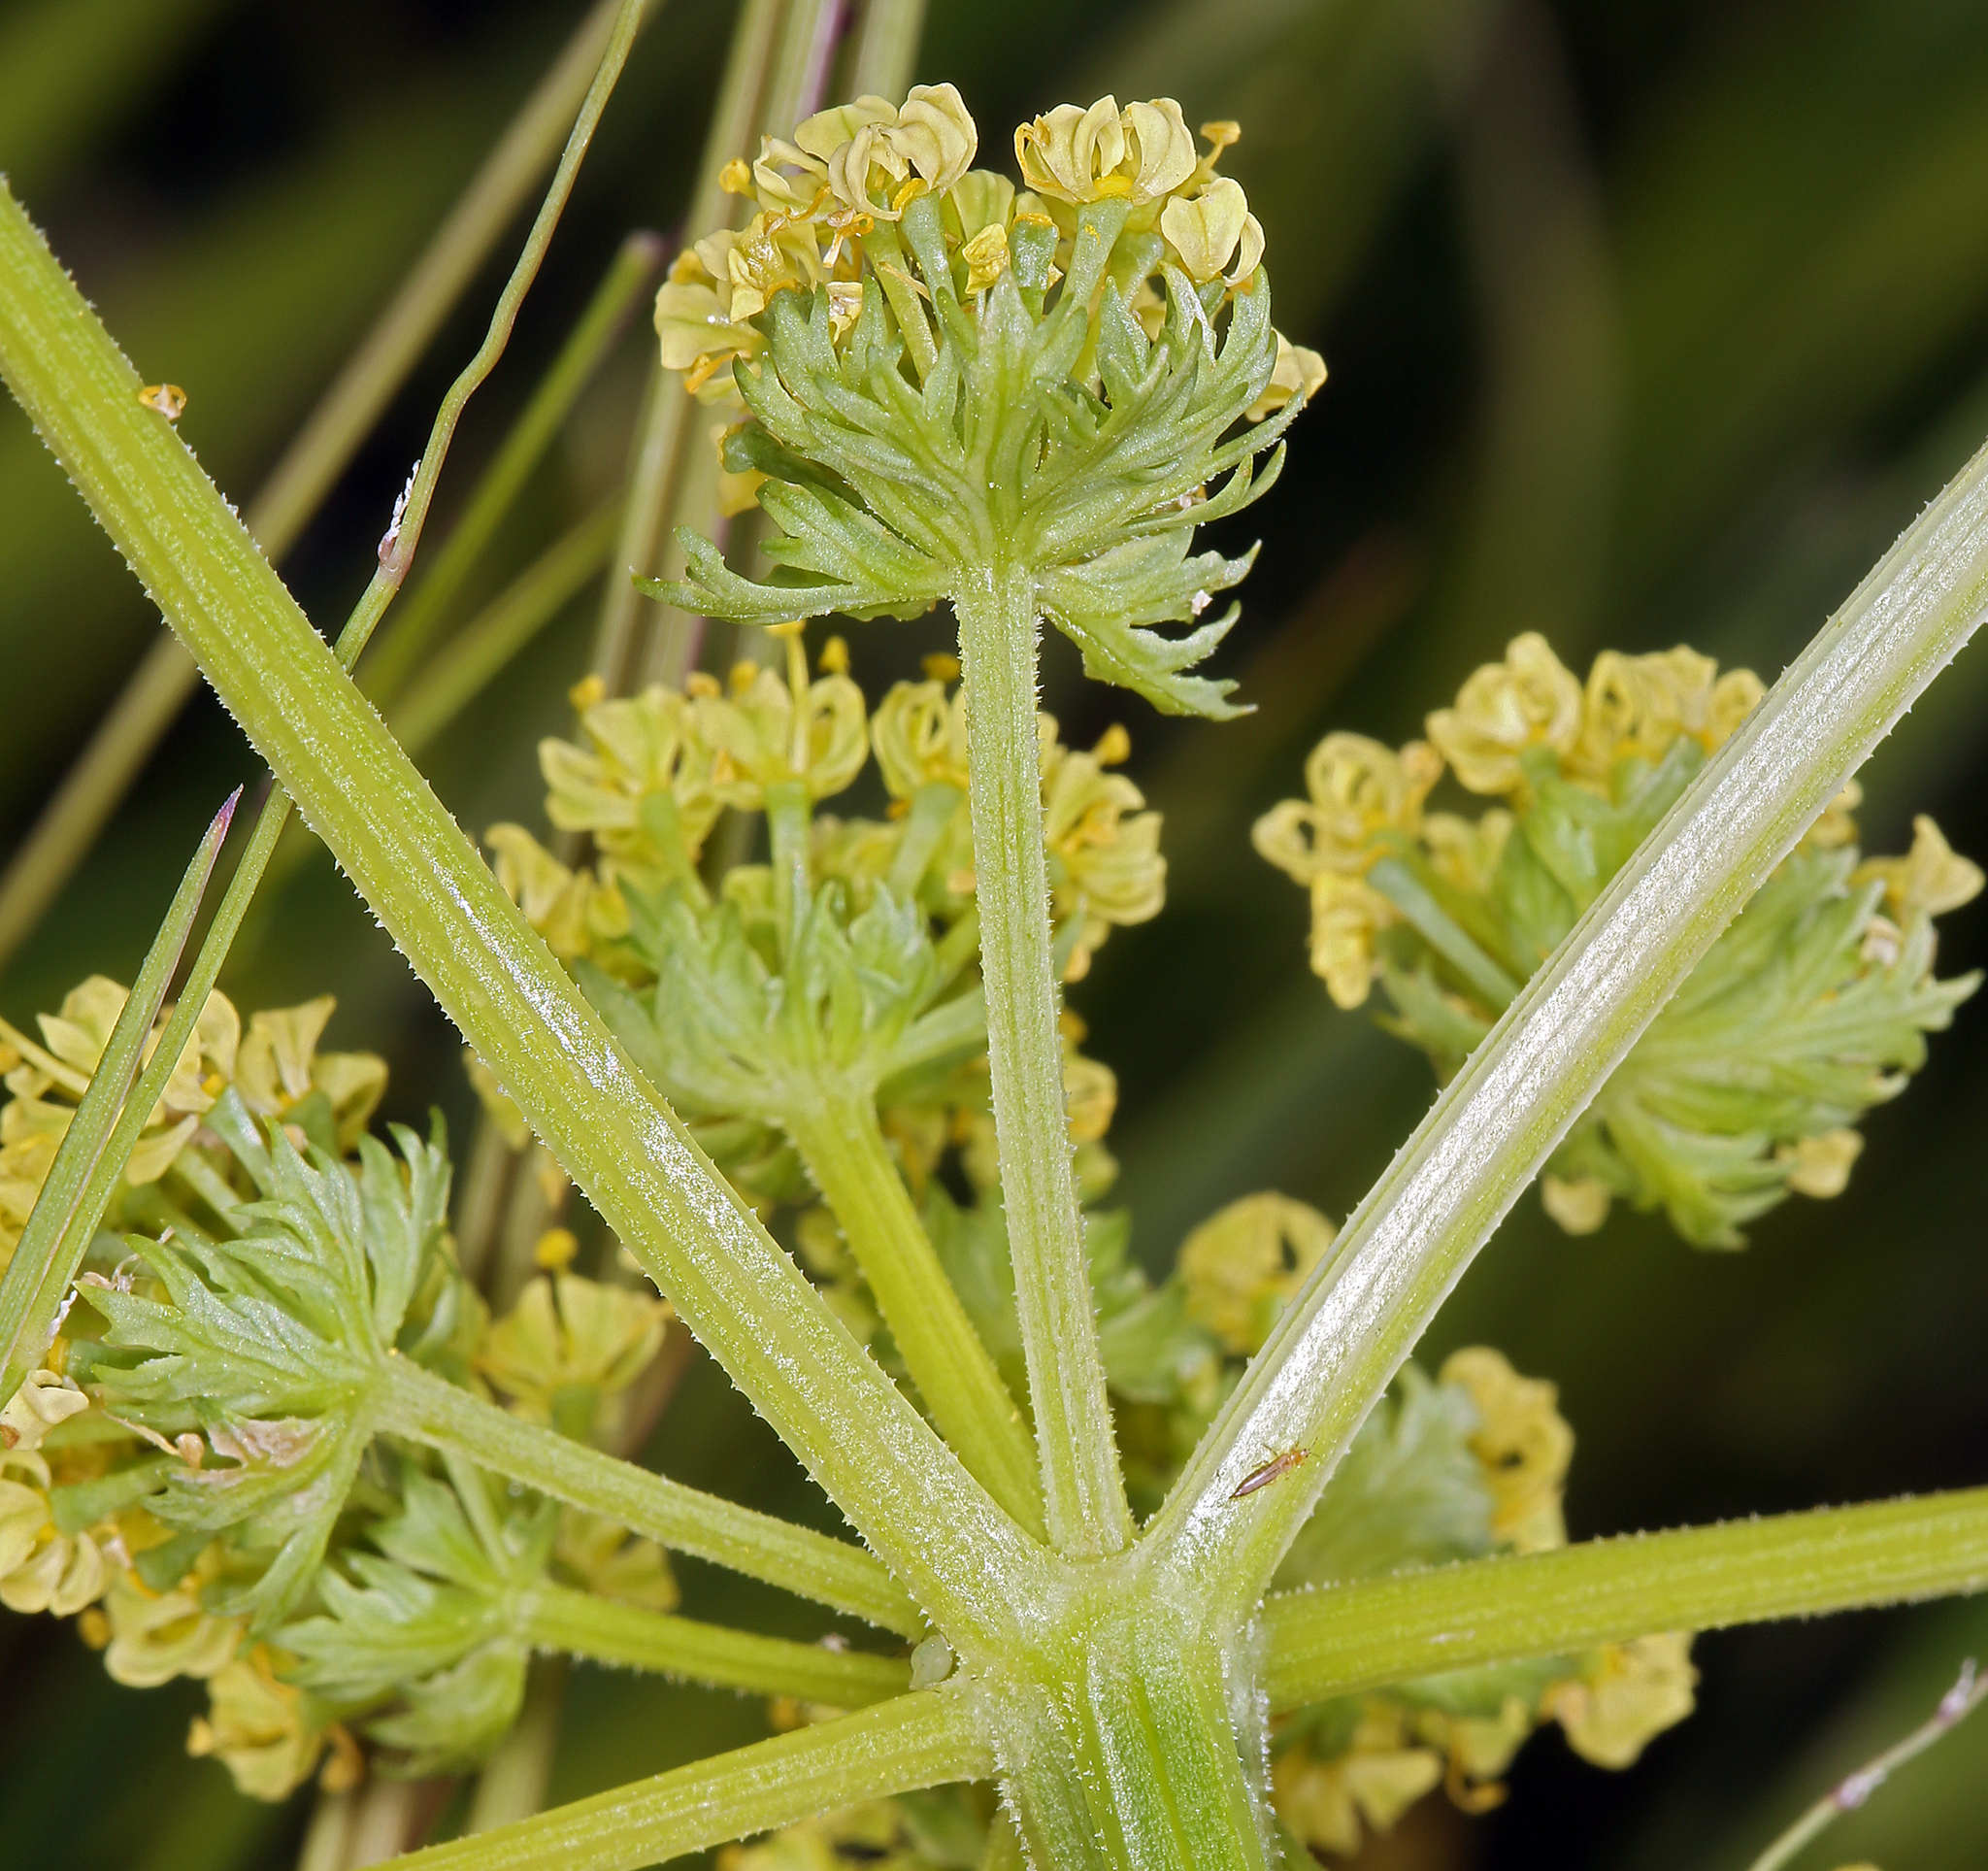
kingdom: Plantae
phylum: Tracheophyta
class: Magnoliopsida
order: Apiales
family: Apiaceae
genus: Lomatium
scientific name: Lomatium caruifolium
